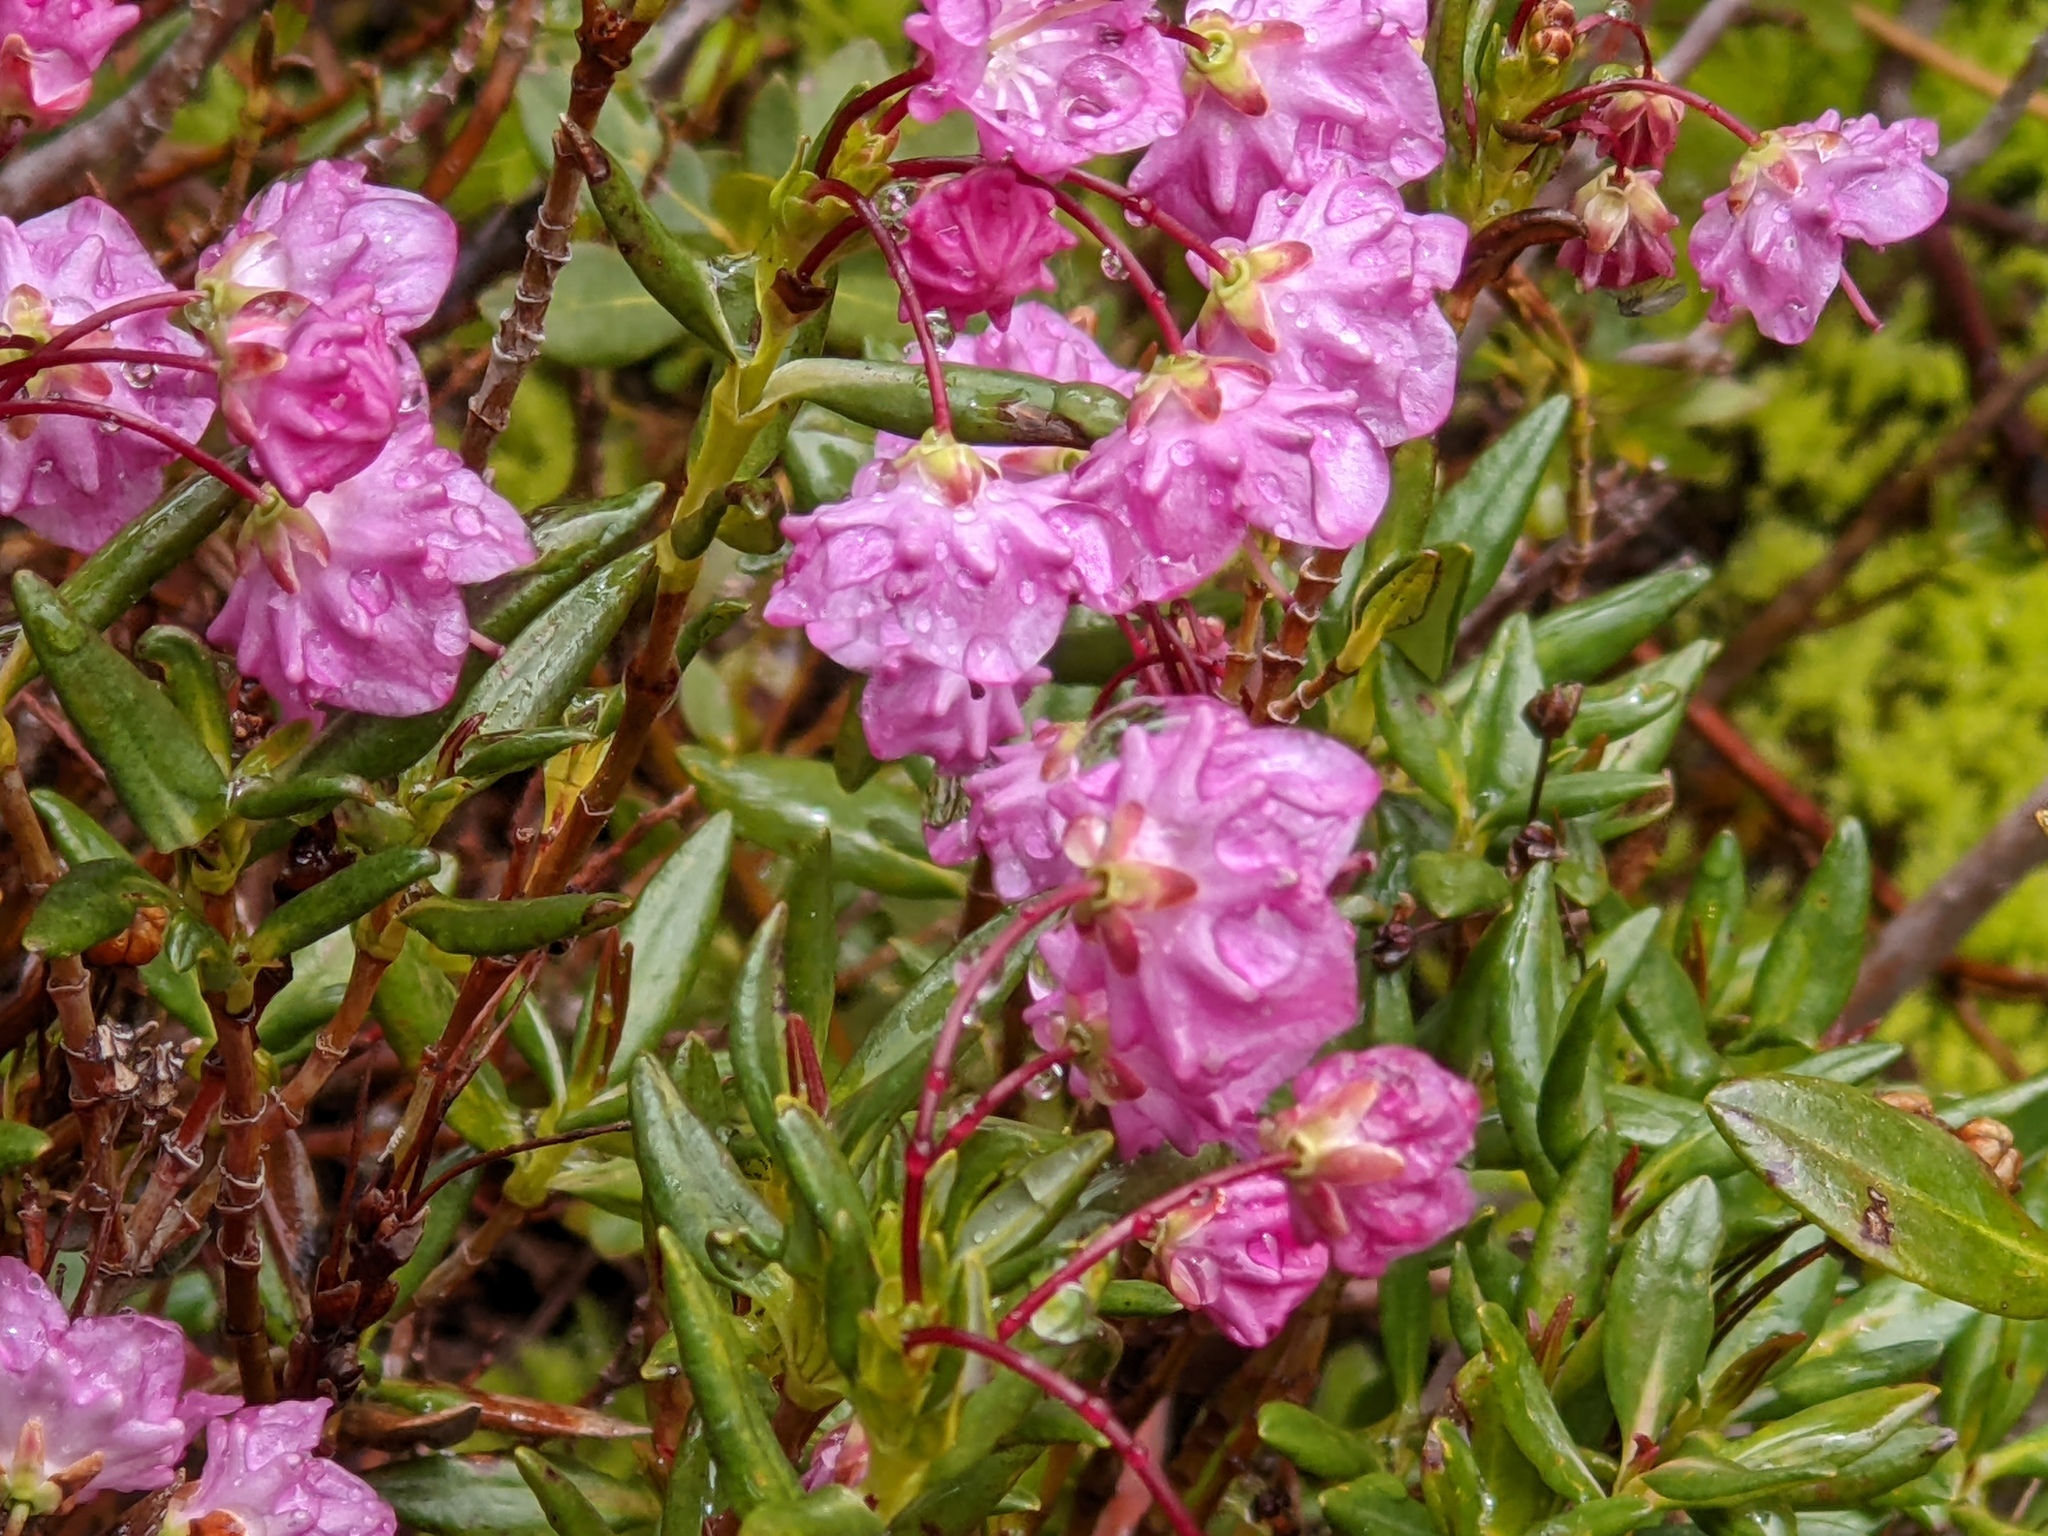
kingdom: Plantae
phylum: Tracheophyta
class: Magnoliopsida
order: Ericales
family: Ericaceae
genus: Kalmia
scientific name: Kalmia microphylla
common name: Alpine bog laurel
